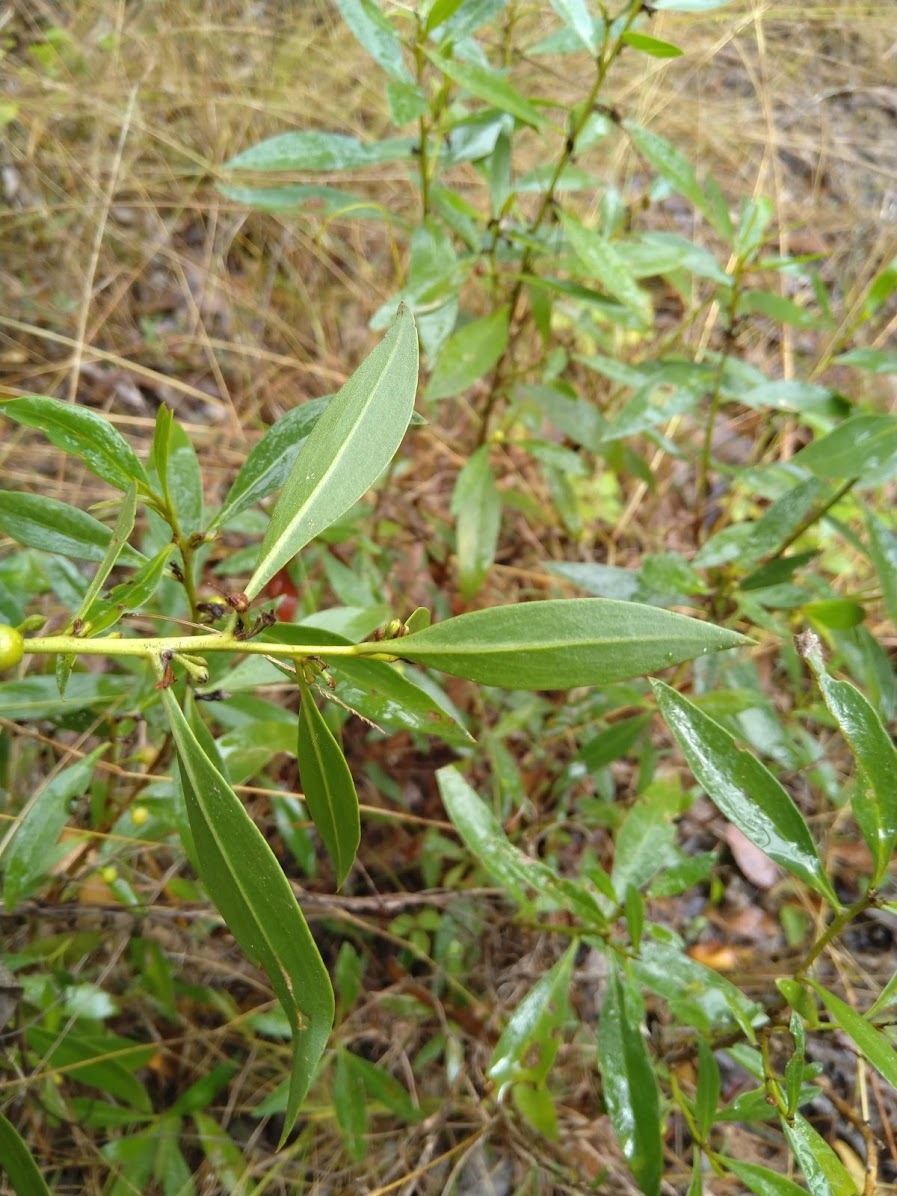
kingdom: Plantae
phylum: Tracheophyta
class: Magnoliopsida
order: Lamiales
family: Scrophulariaceae
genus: Myoporum
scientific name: Myoporum acuminatum
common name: Pointed boobialla
